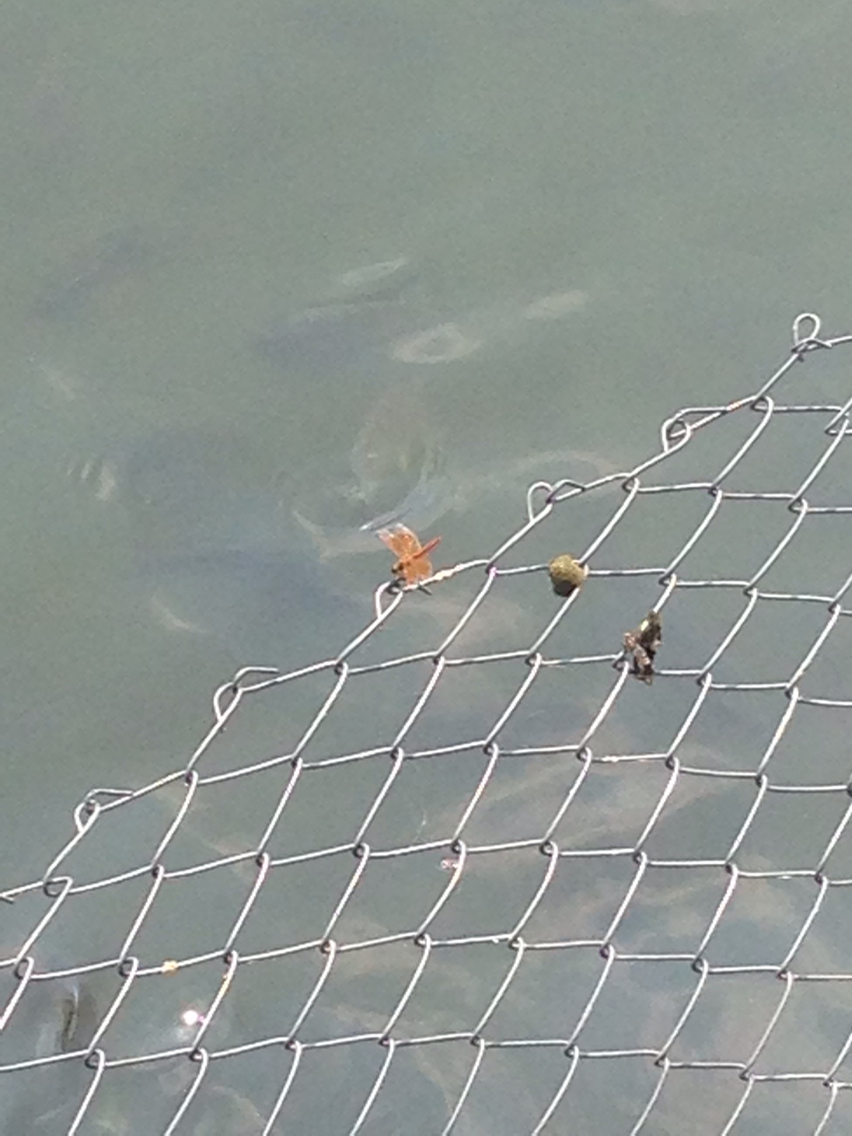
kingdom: Animalia
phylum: Arthropoda
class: Insecta
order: Odonata
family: Libellulidae
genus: Brachythemis
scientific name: Brachythemis contaminata
